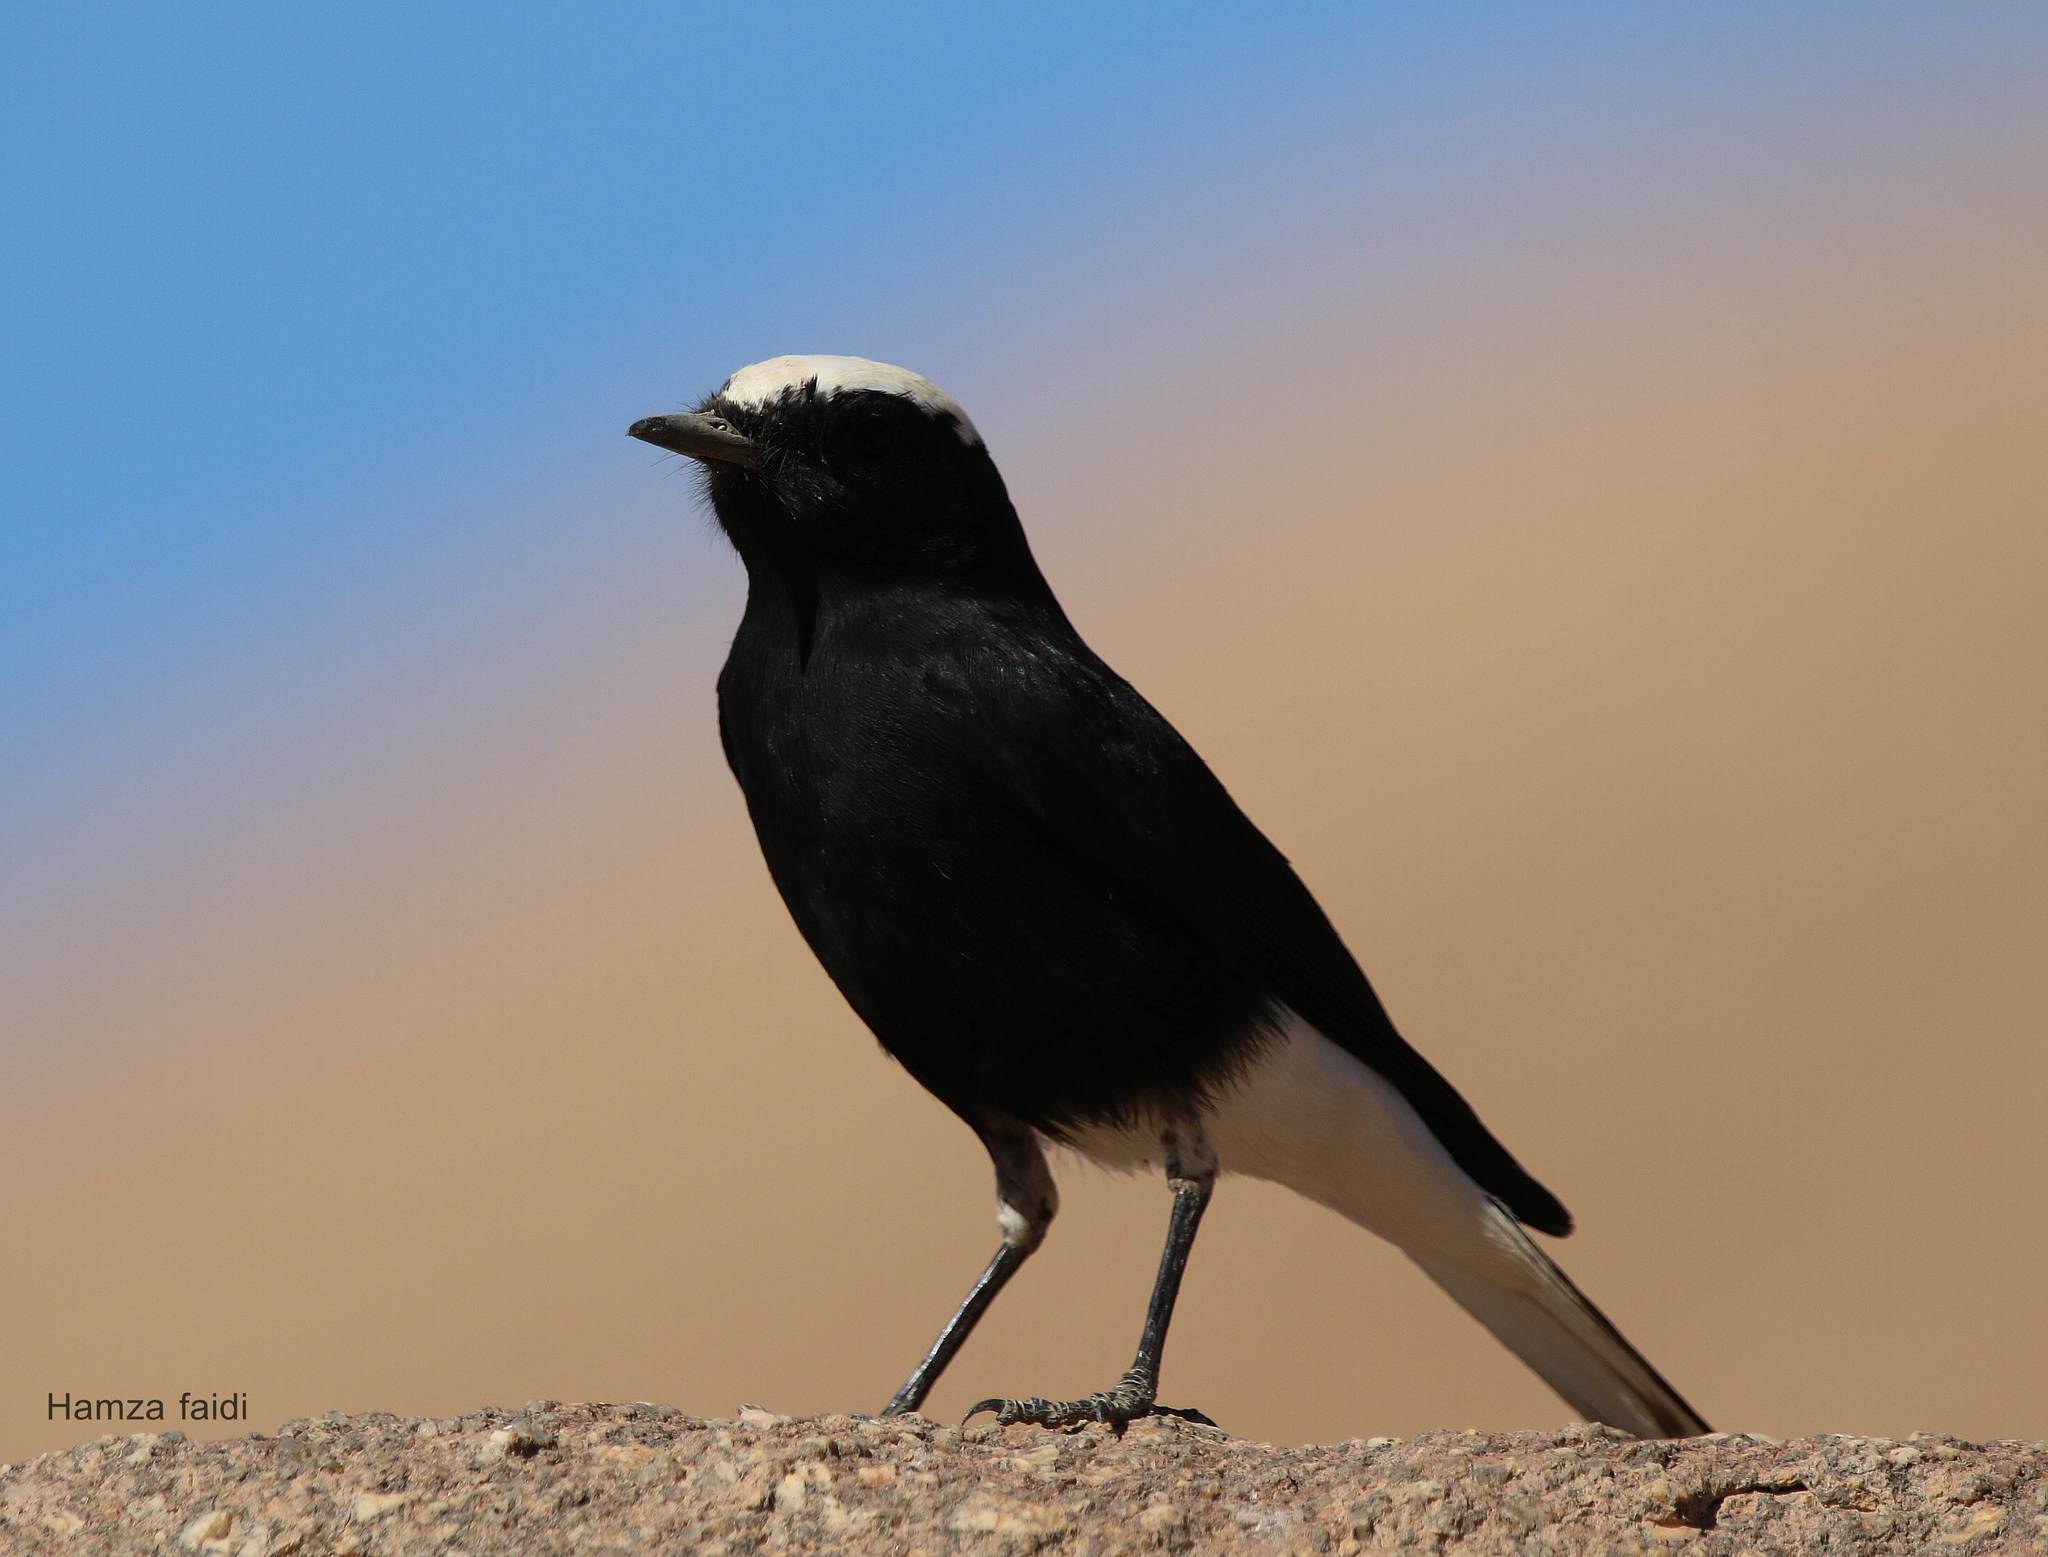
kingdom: Animalia
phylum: Chordata
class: Aves
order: Passeriformes
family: Muscicapidae
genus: Oenanthe
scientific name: Oenanthe leucopyga
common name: White-crowned wheatear
